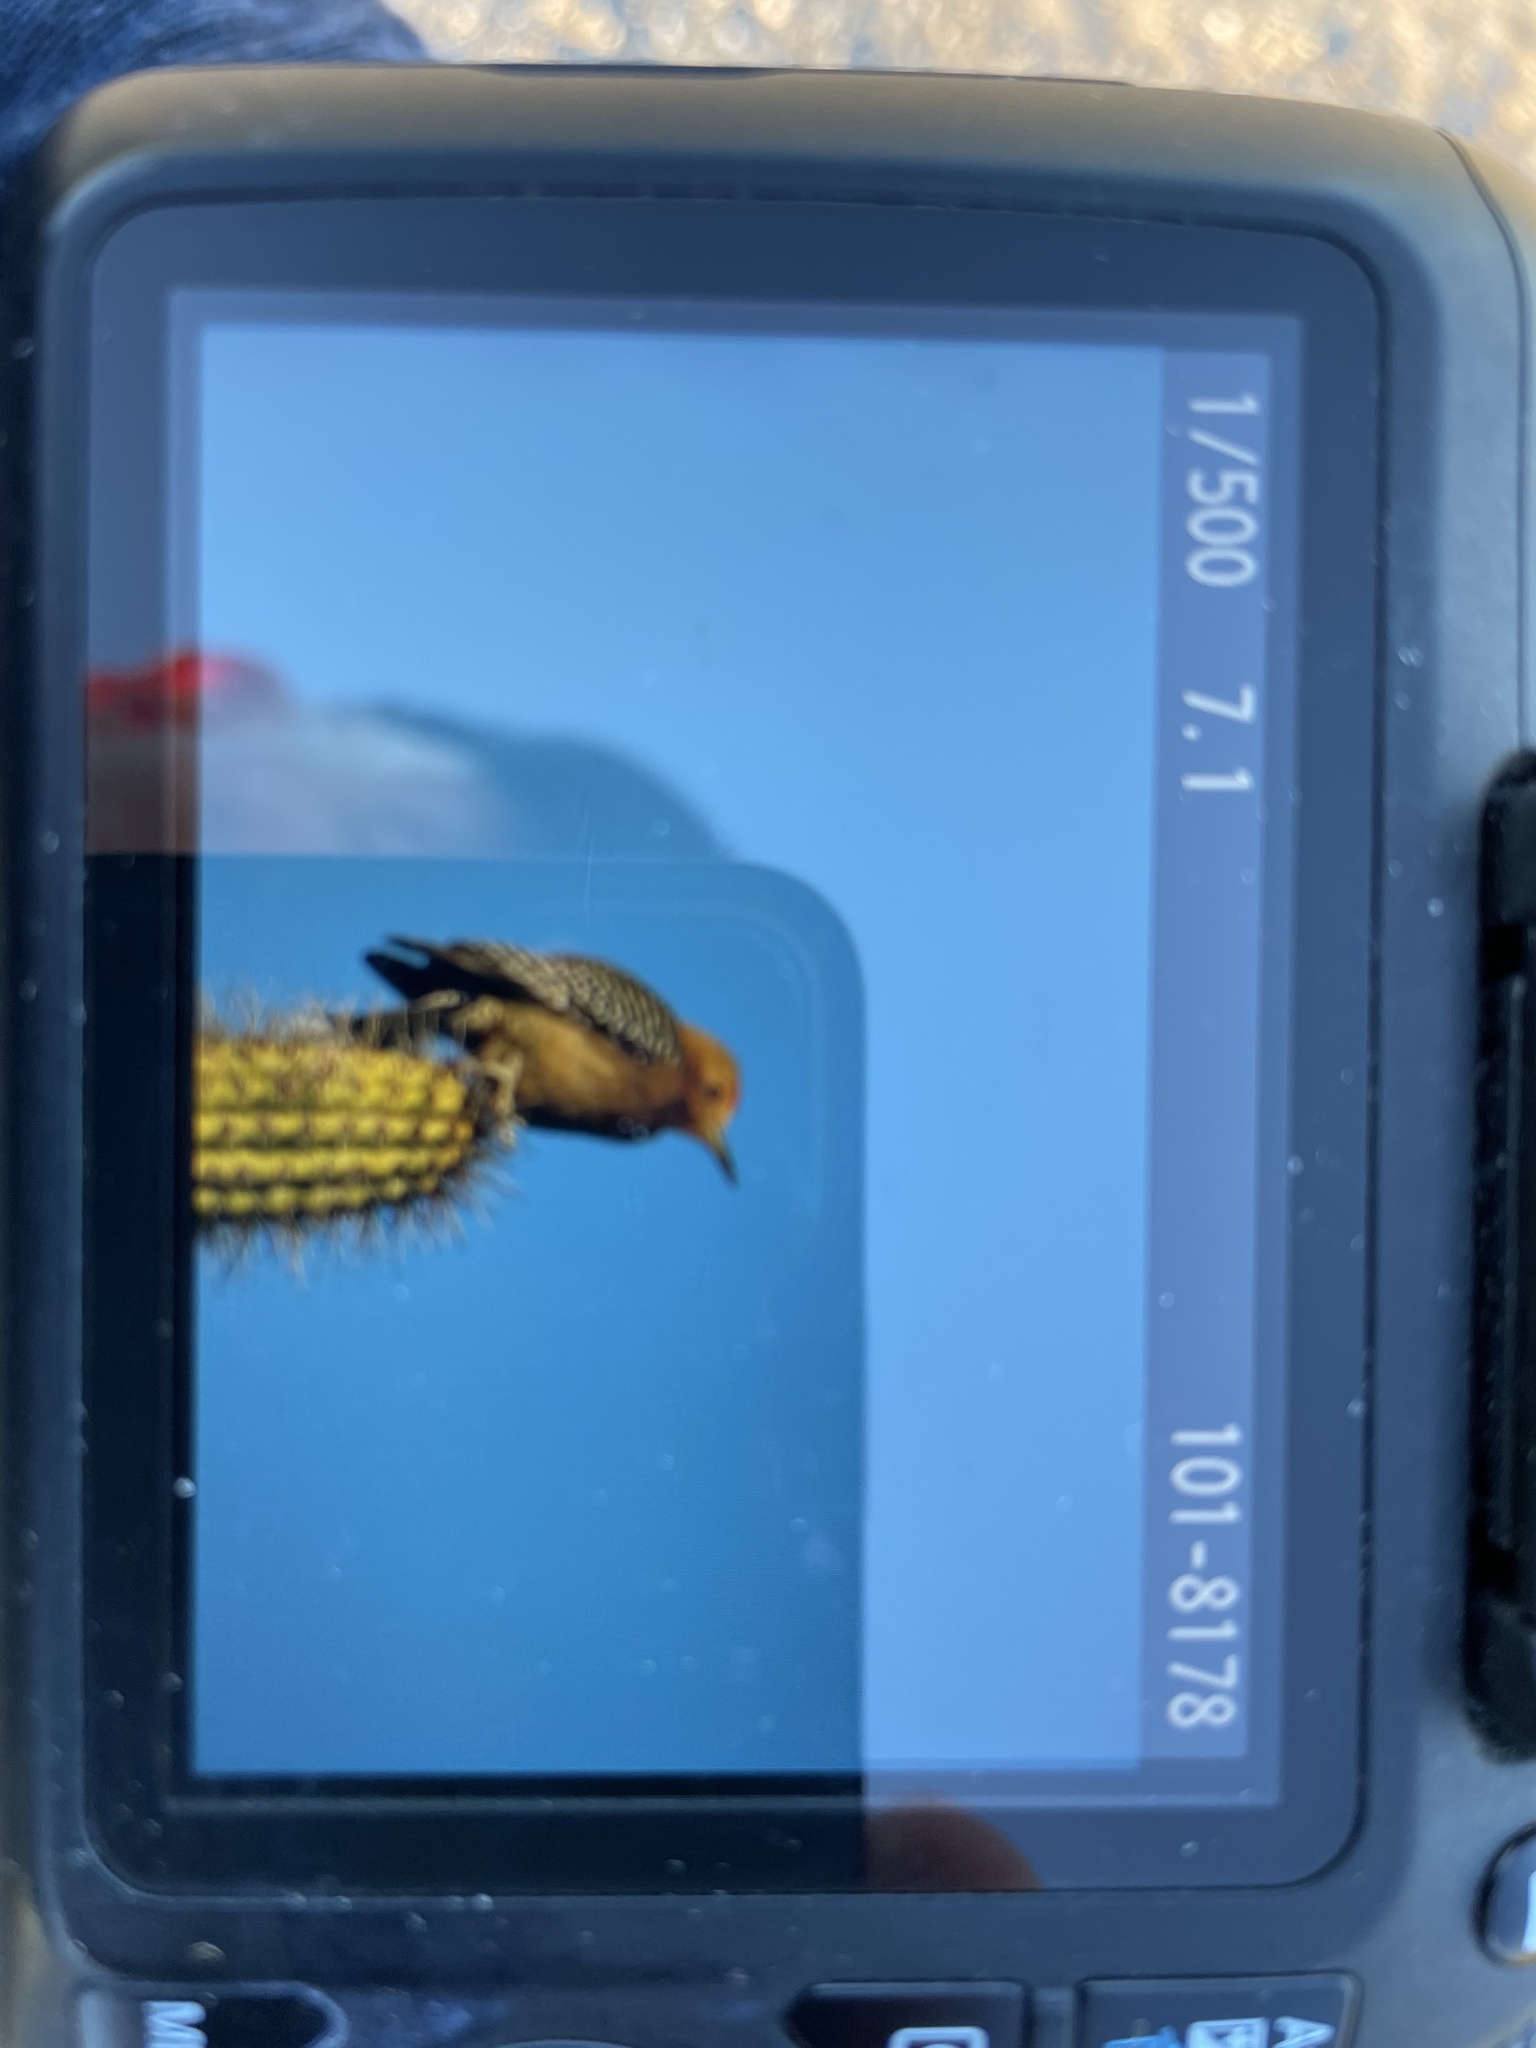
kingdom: Animalia
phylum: Chordata
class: Aves
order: Piciformes
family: Picidae
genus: Melanerpes
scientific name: Melanerpes uropygialis
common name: Gila woodpecker
